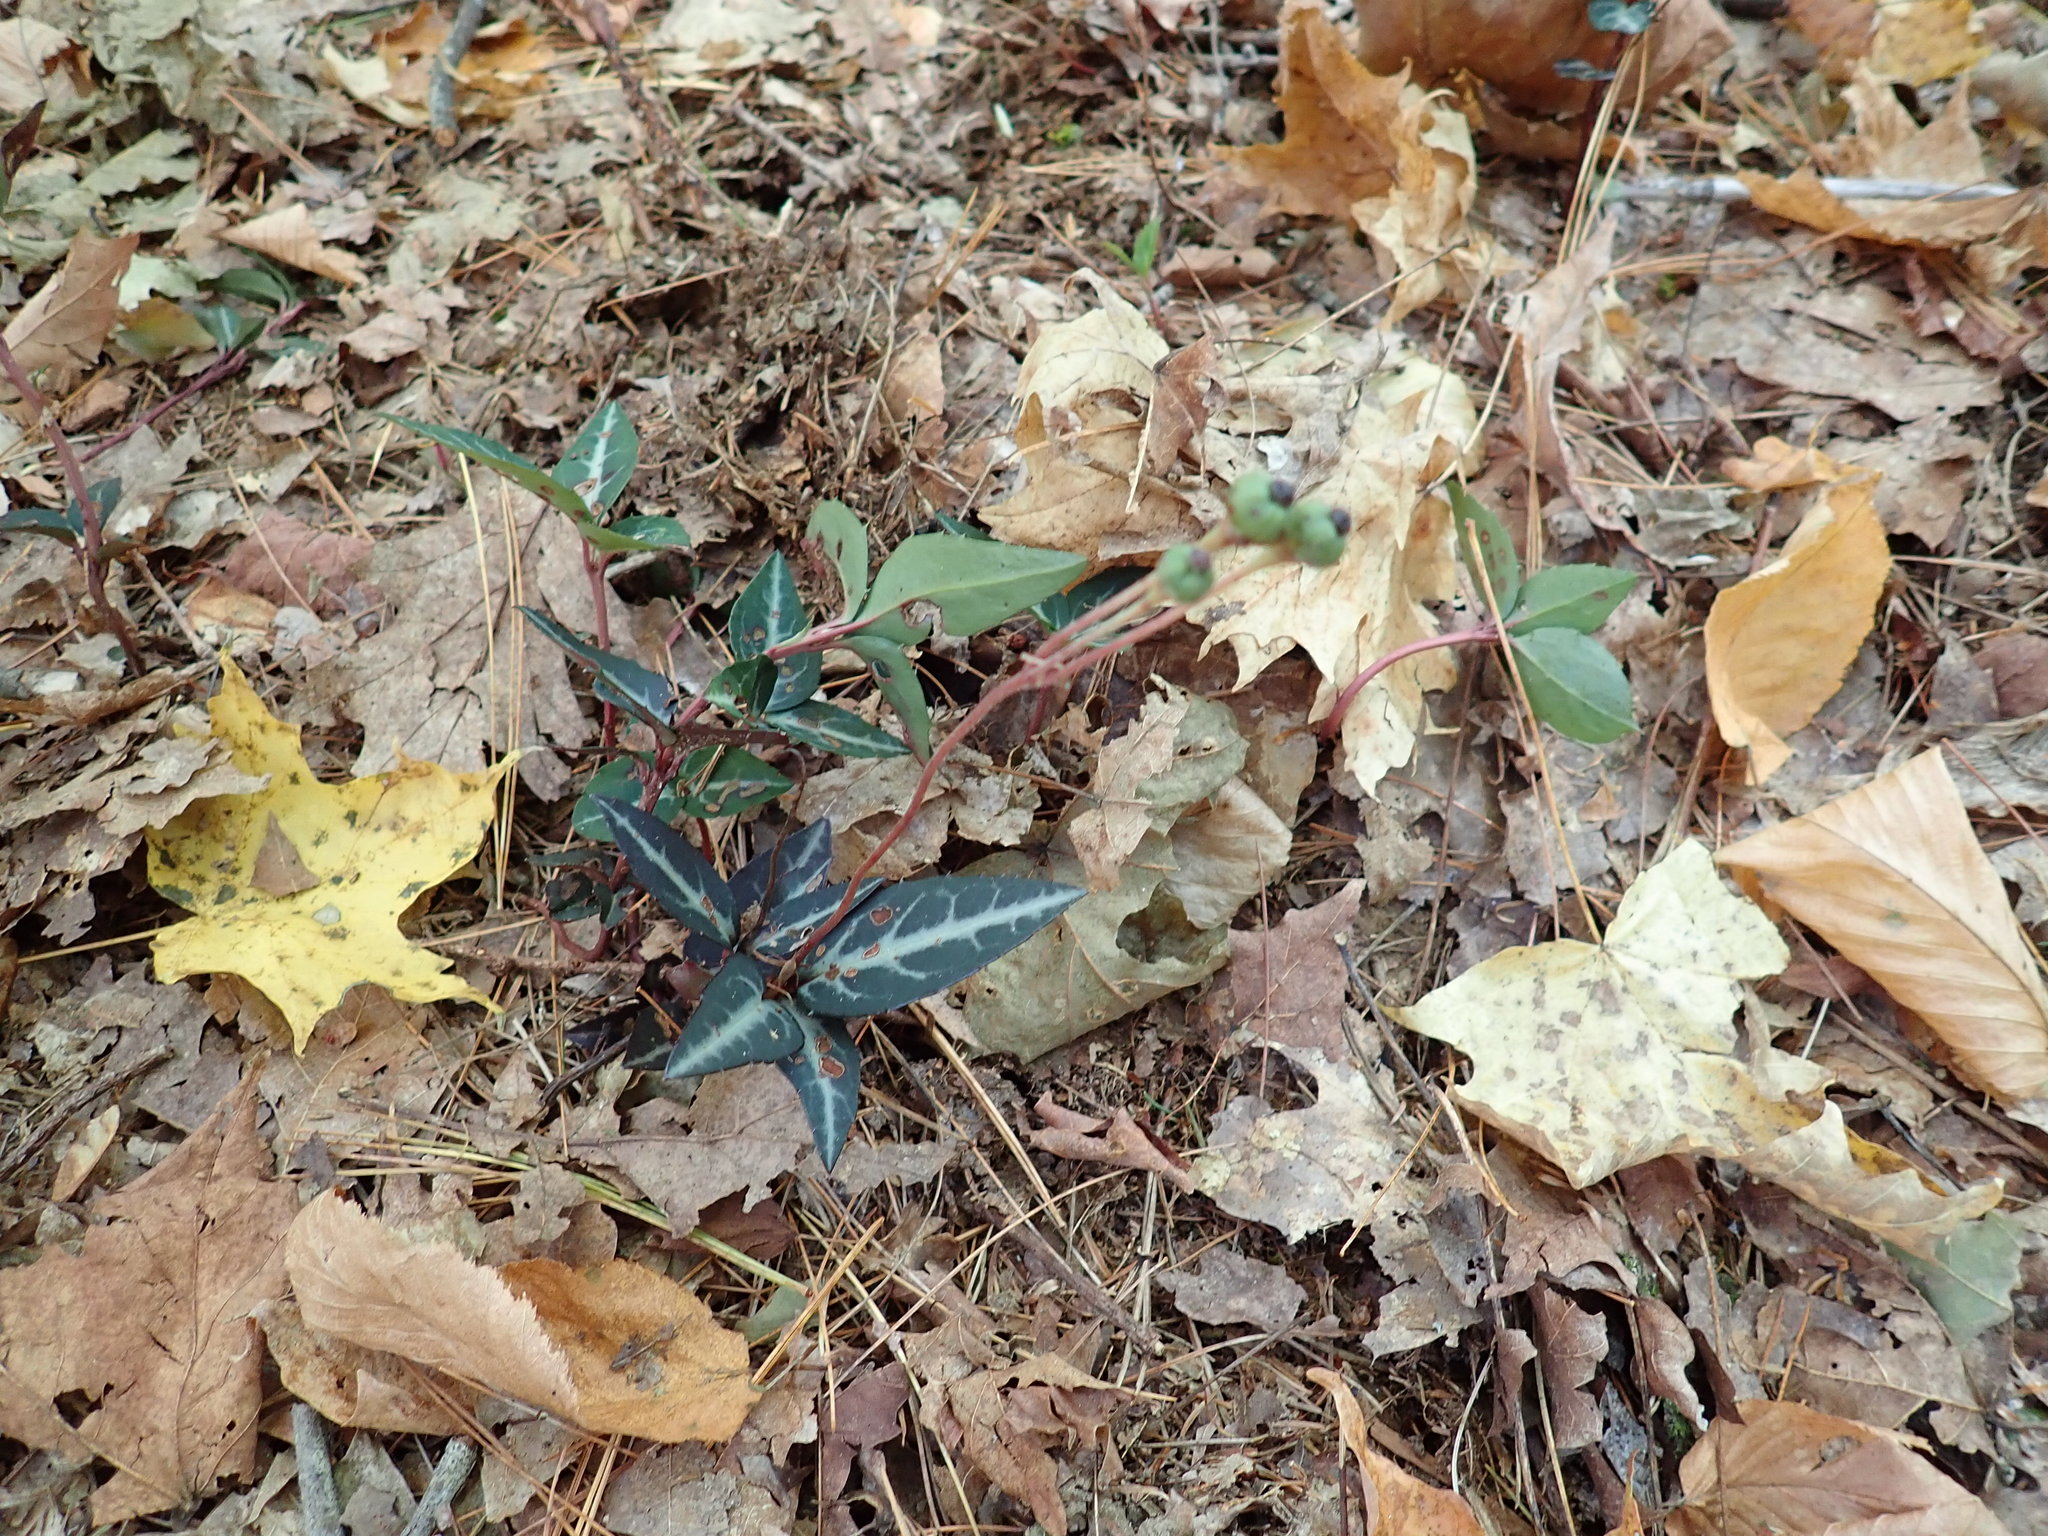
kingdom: Plantae
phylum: Tracheophyta
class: Magnoliopsida
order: Ericales
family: Ericaceae
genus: Chimaphila
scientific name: Chimaphila maculata
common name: Spotted pipsissewa
